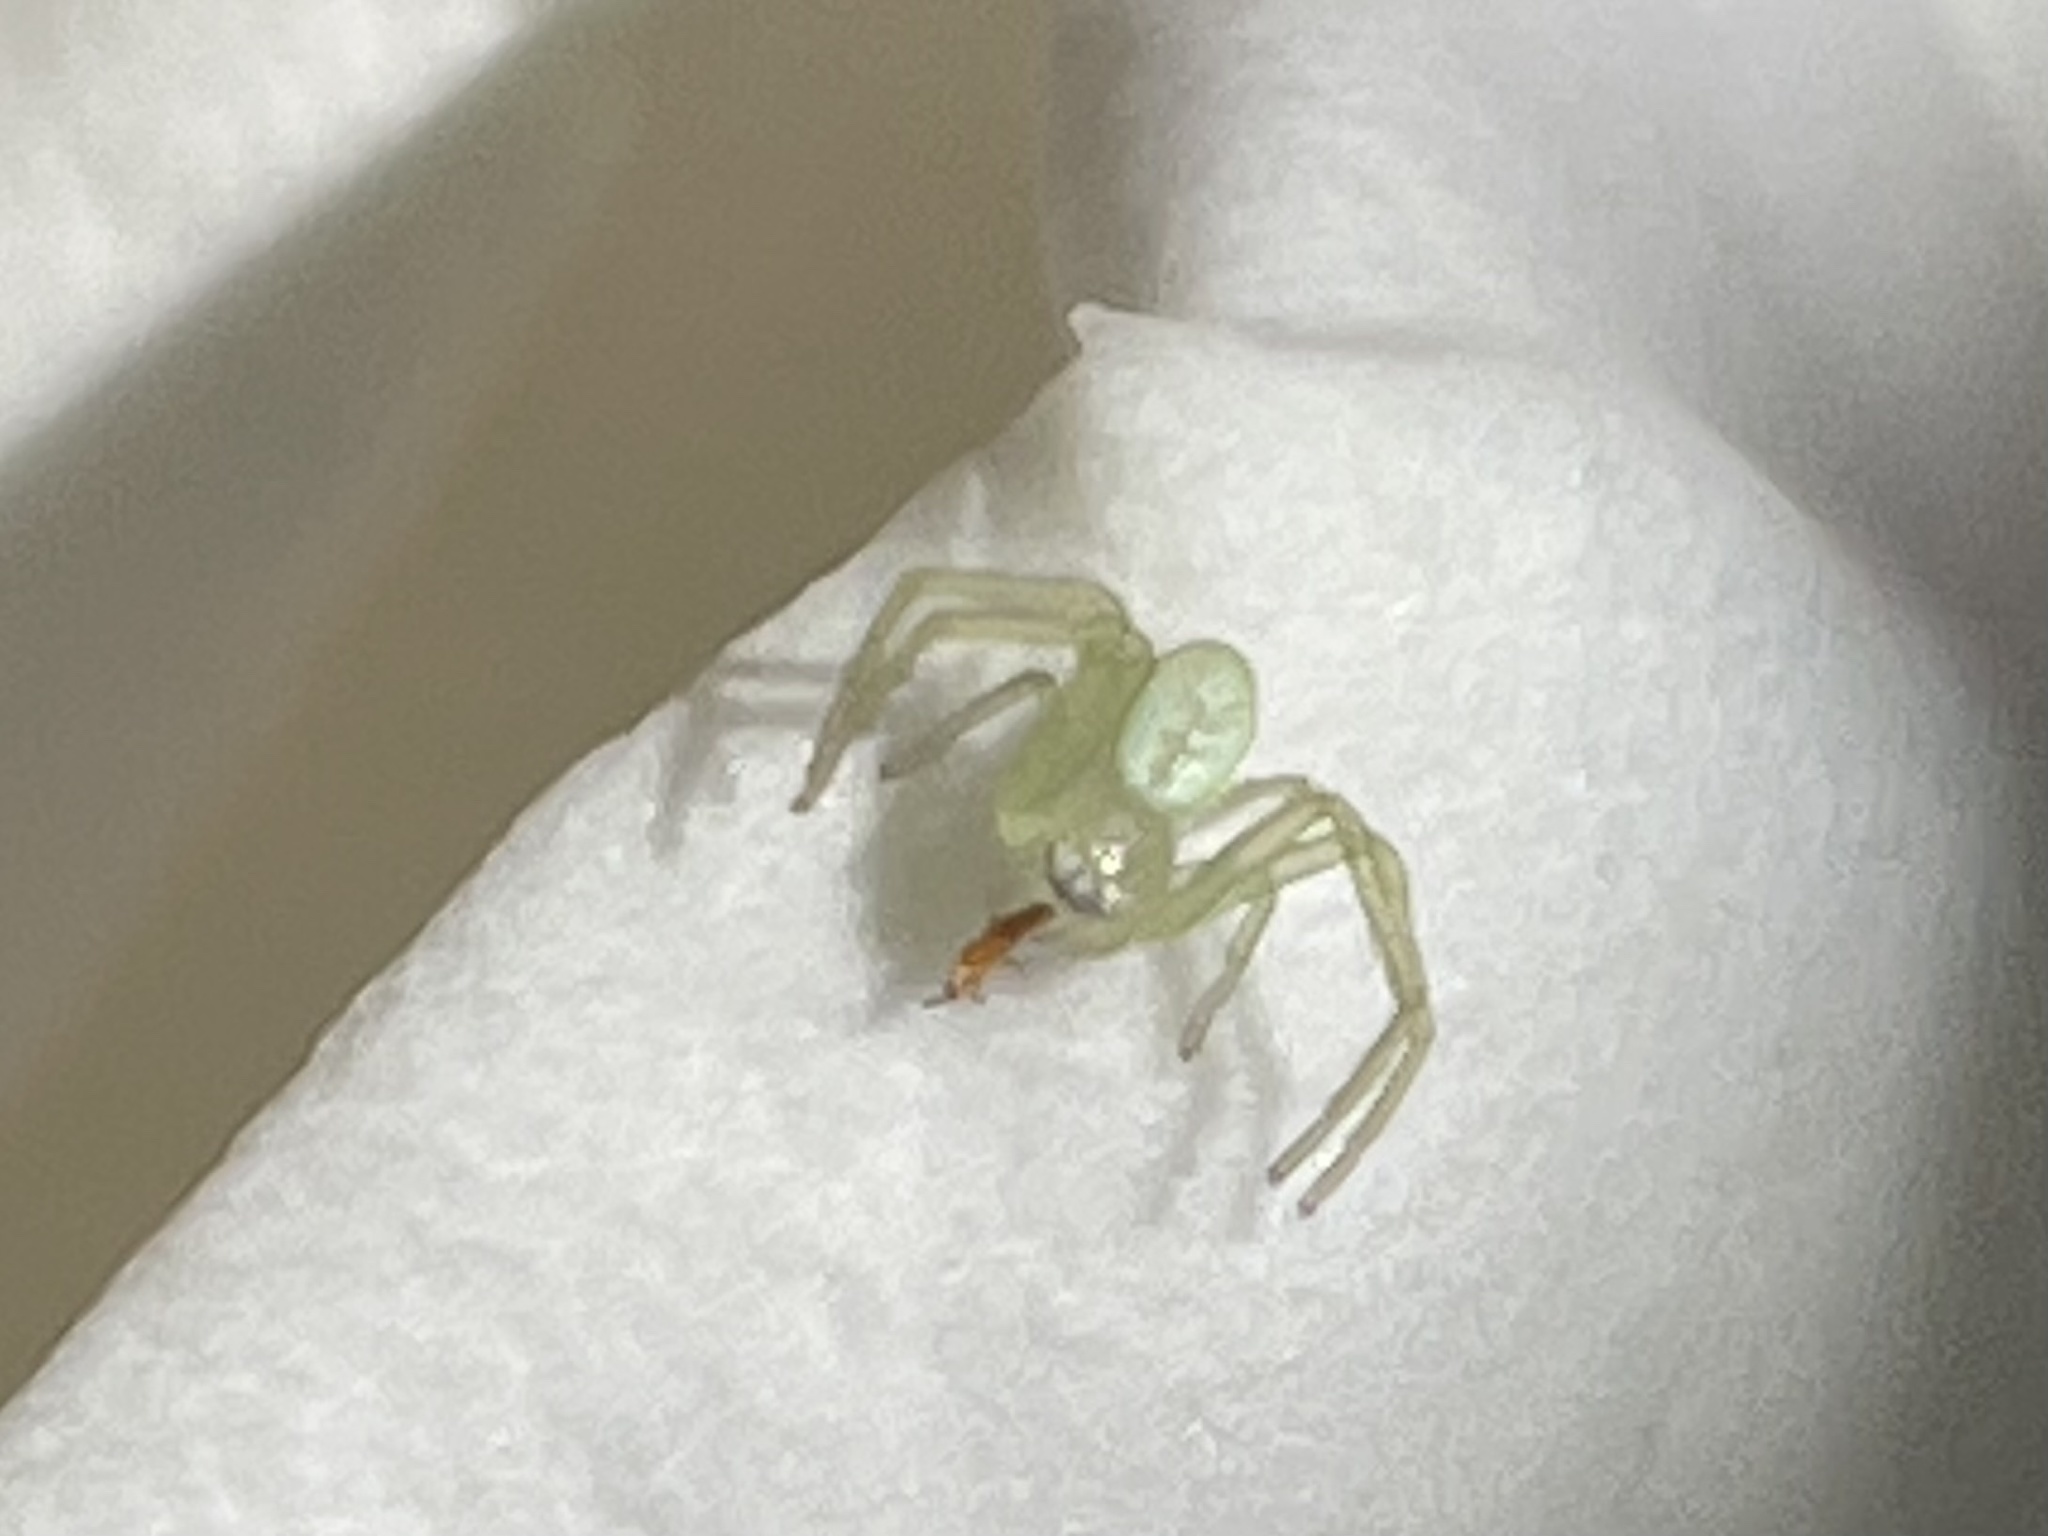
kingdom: Animalia
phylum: Arthropoda
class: Arachnida
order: Araneae
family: Thomisidae
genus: Misumessus
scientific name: Misumessus oblongus
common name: American green crab spider
